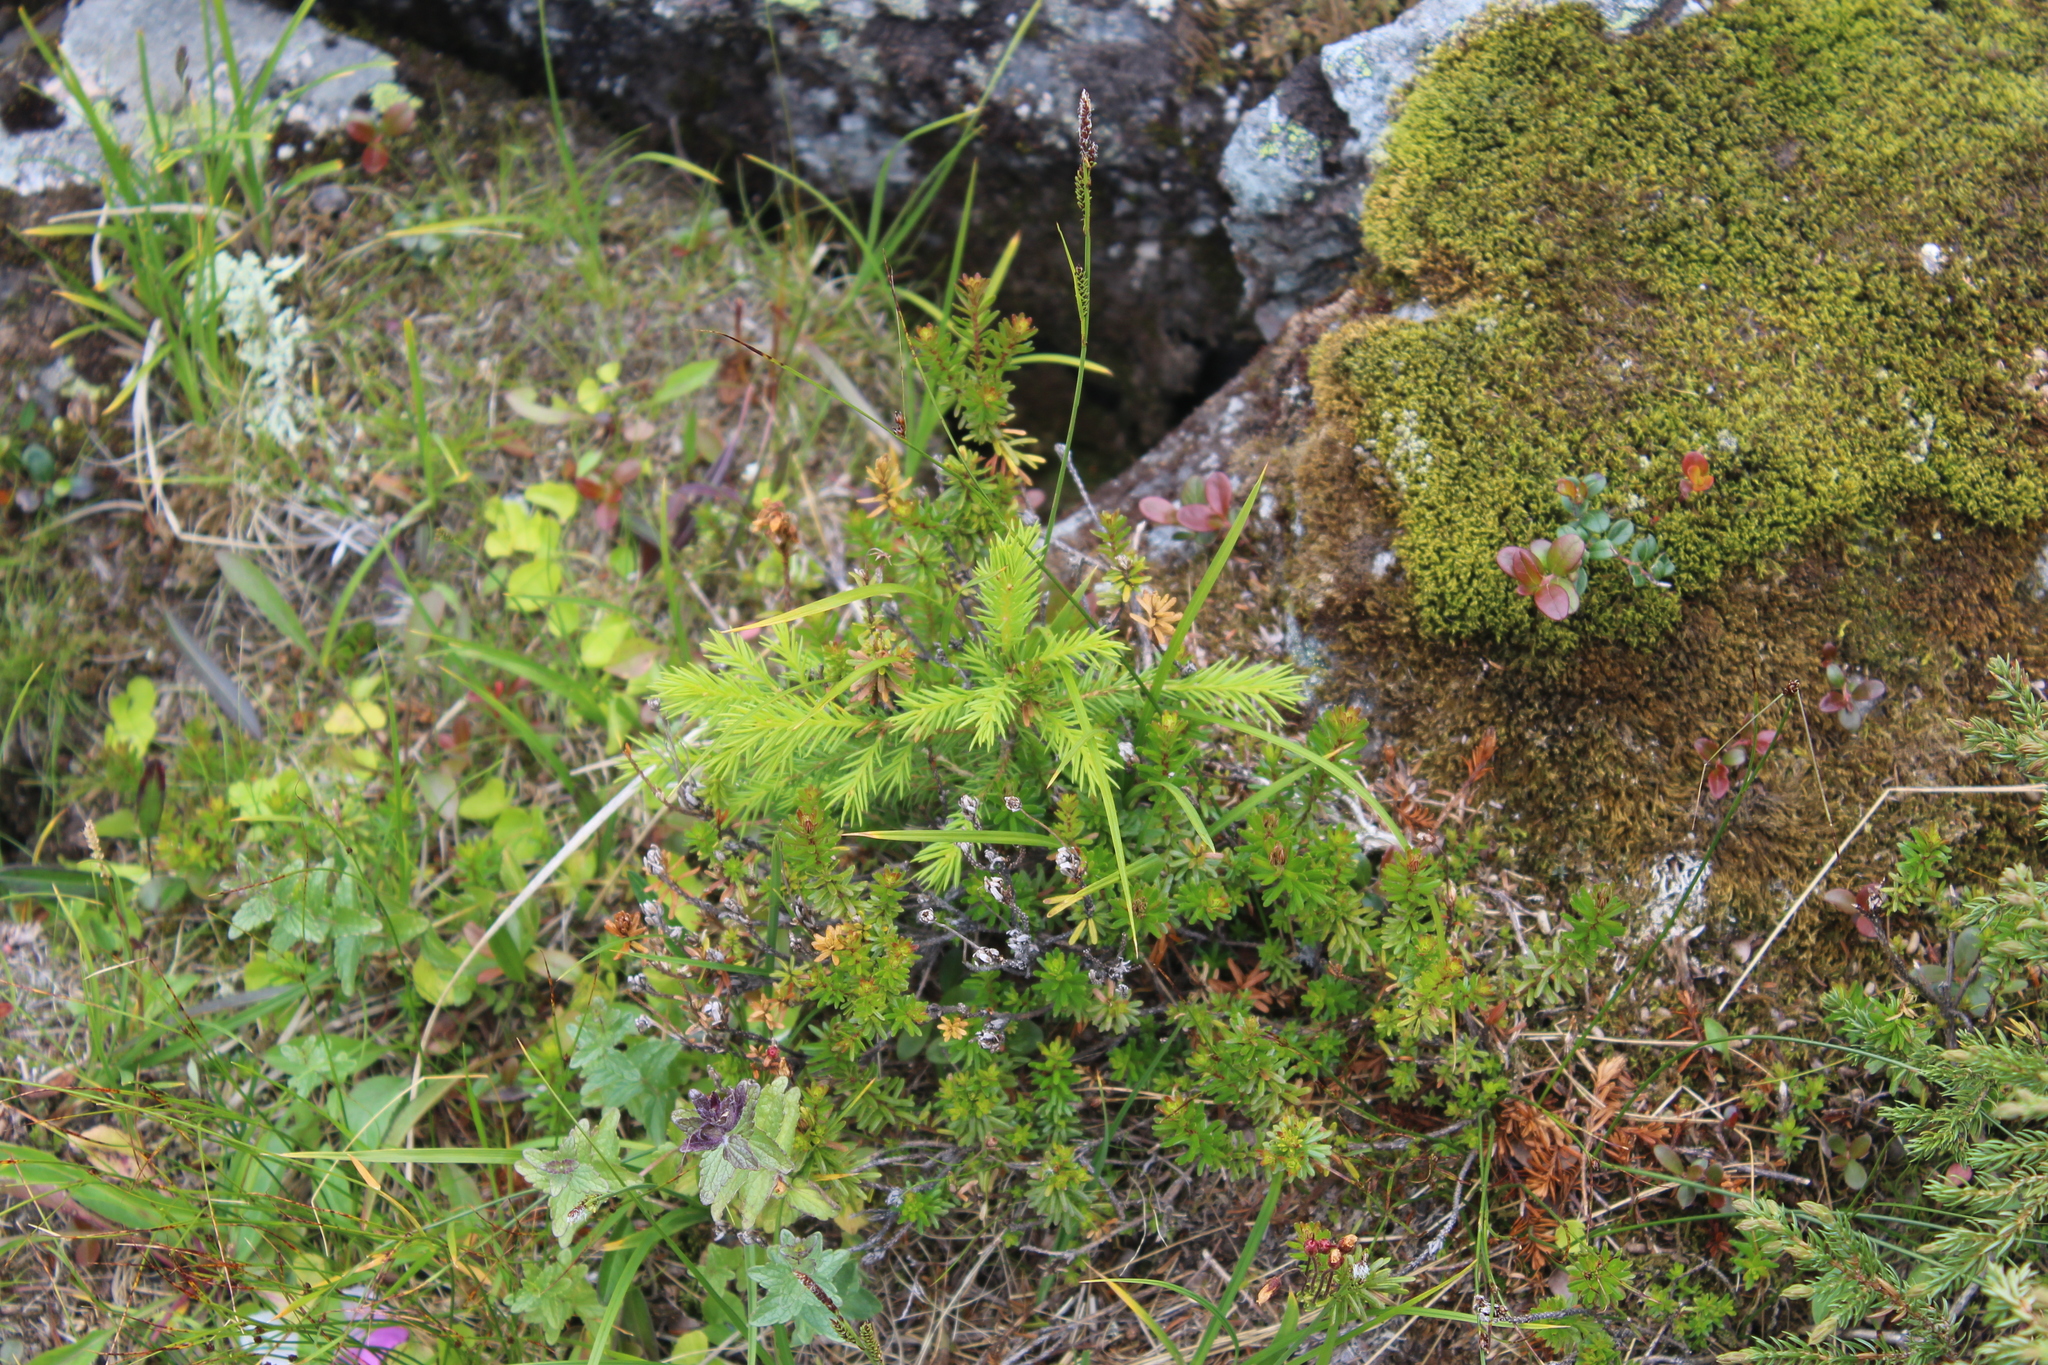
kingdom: Plantae
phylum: Tracheophyta
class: Pinopsida
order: Pinales
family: Pinaceae
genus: Picea
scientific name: Picea abies
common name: Norway spruce
